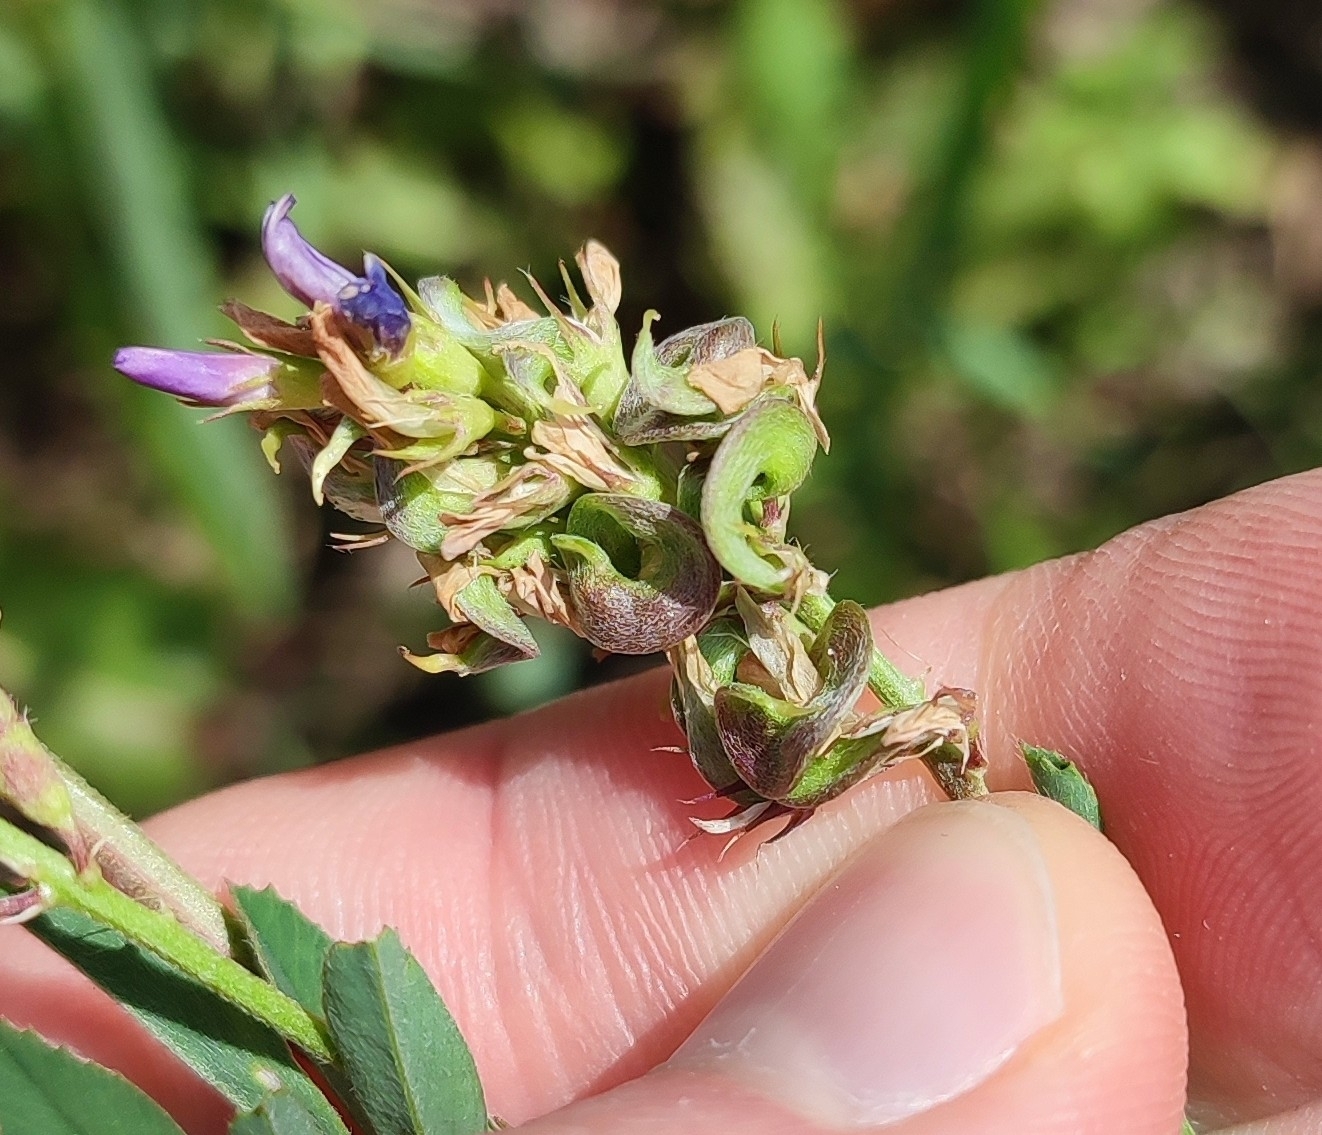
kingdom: Plantae
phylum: Tracheophyta
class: Magnoliopsida
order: Fabales
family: Fabaceae
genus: Medicago
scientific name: Medicago varia
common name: Sand lucerne
